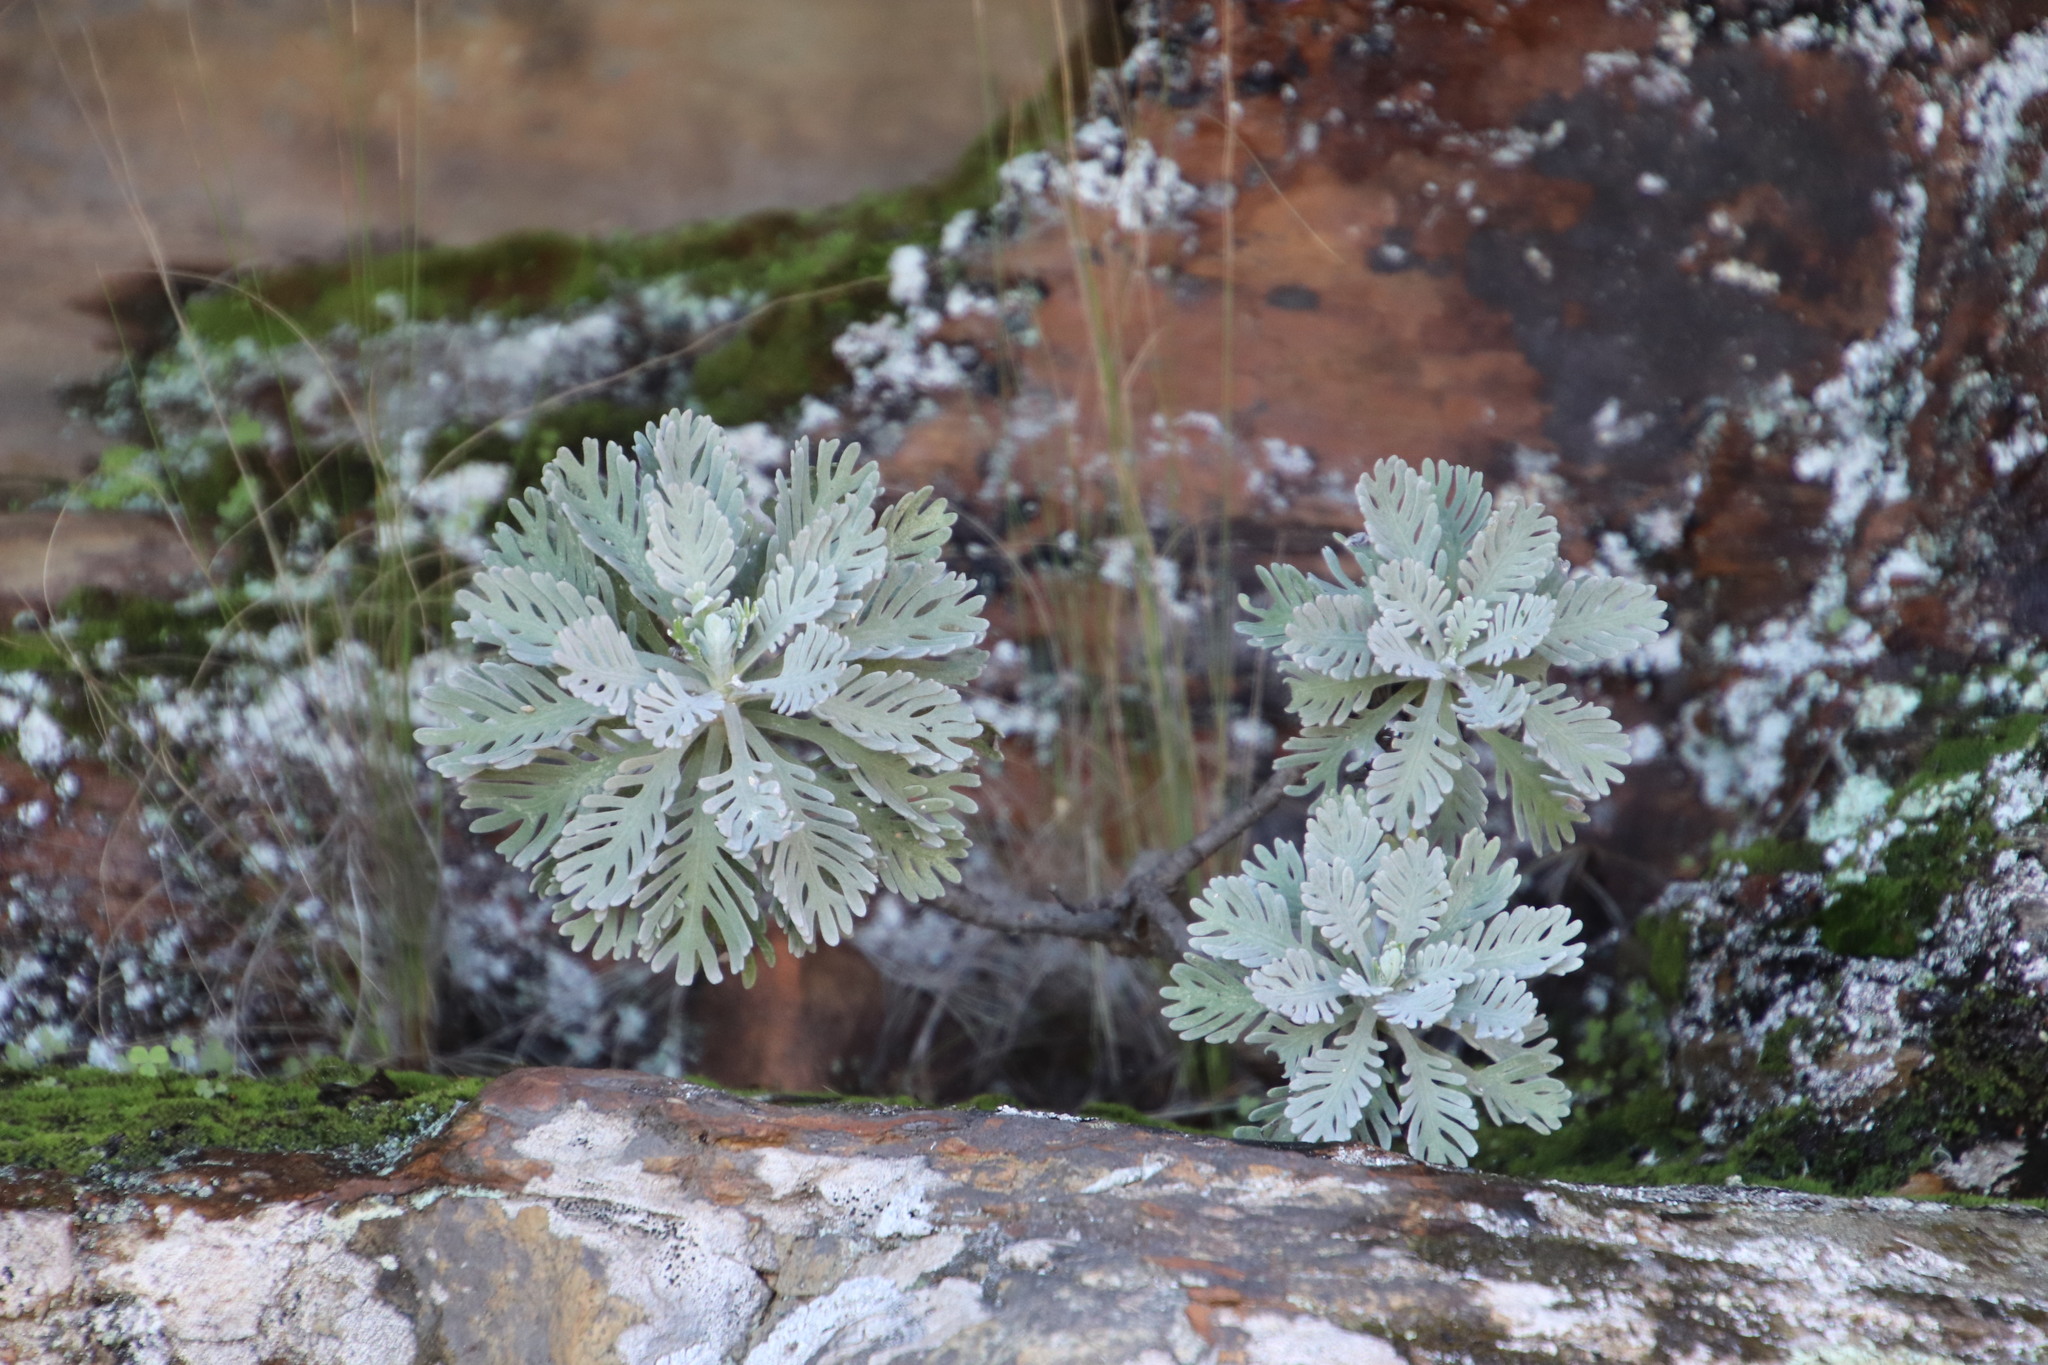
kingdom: Plantae
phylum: Tracheophyta
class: Magnoliopsida
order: Asterales
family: Asteraceae
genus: Euryops
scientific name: Euryops pectinatus
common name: Gray-leaf euryops
